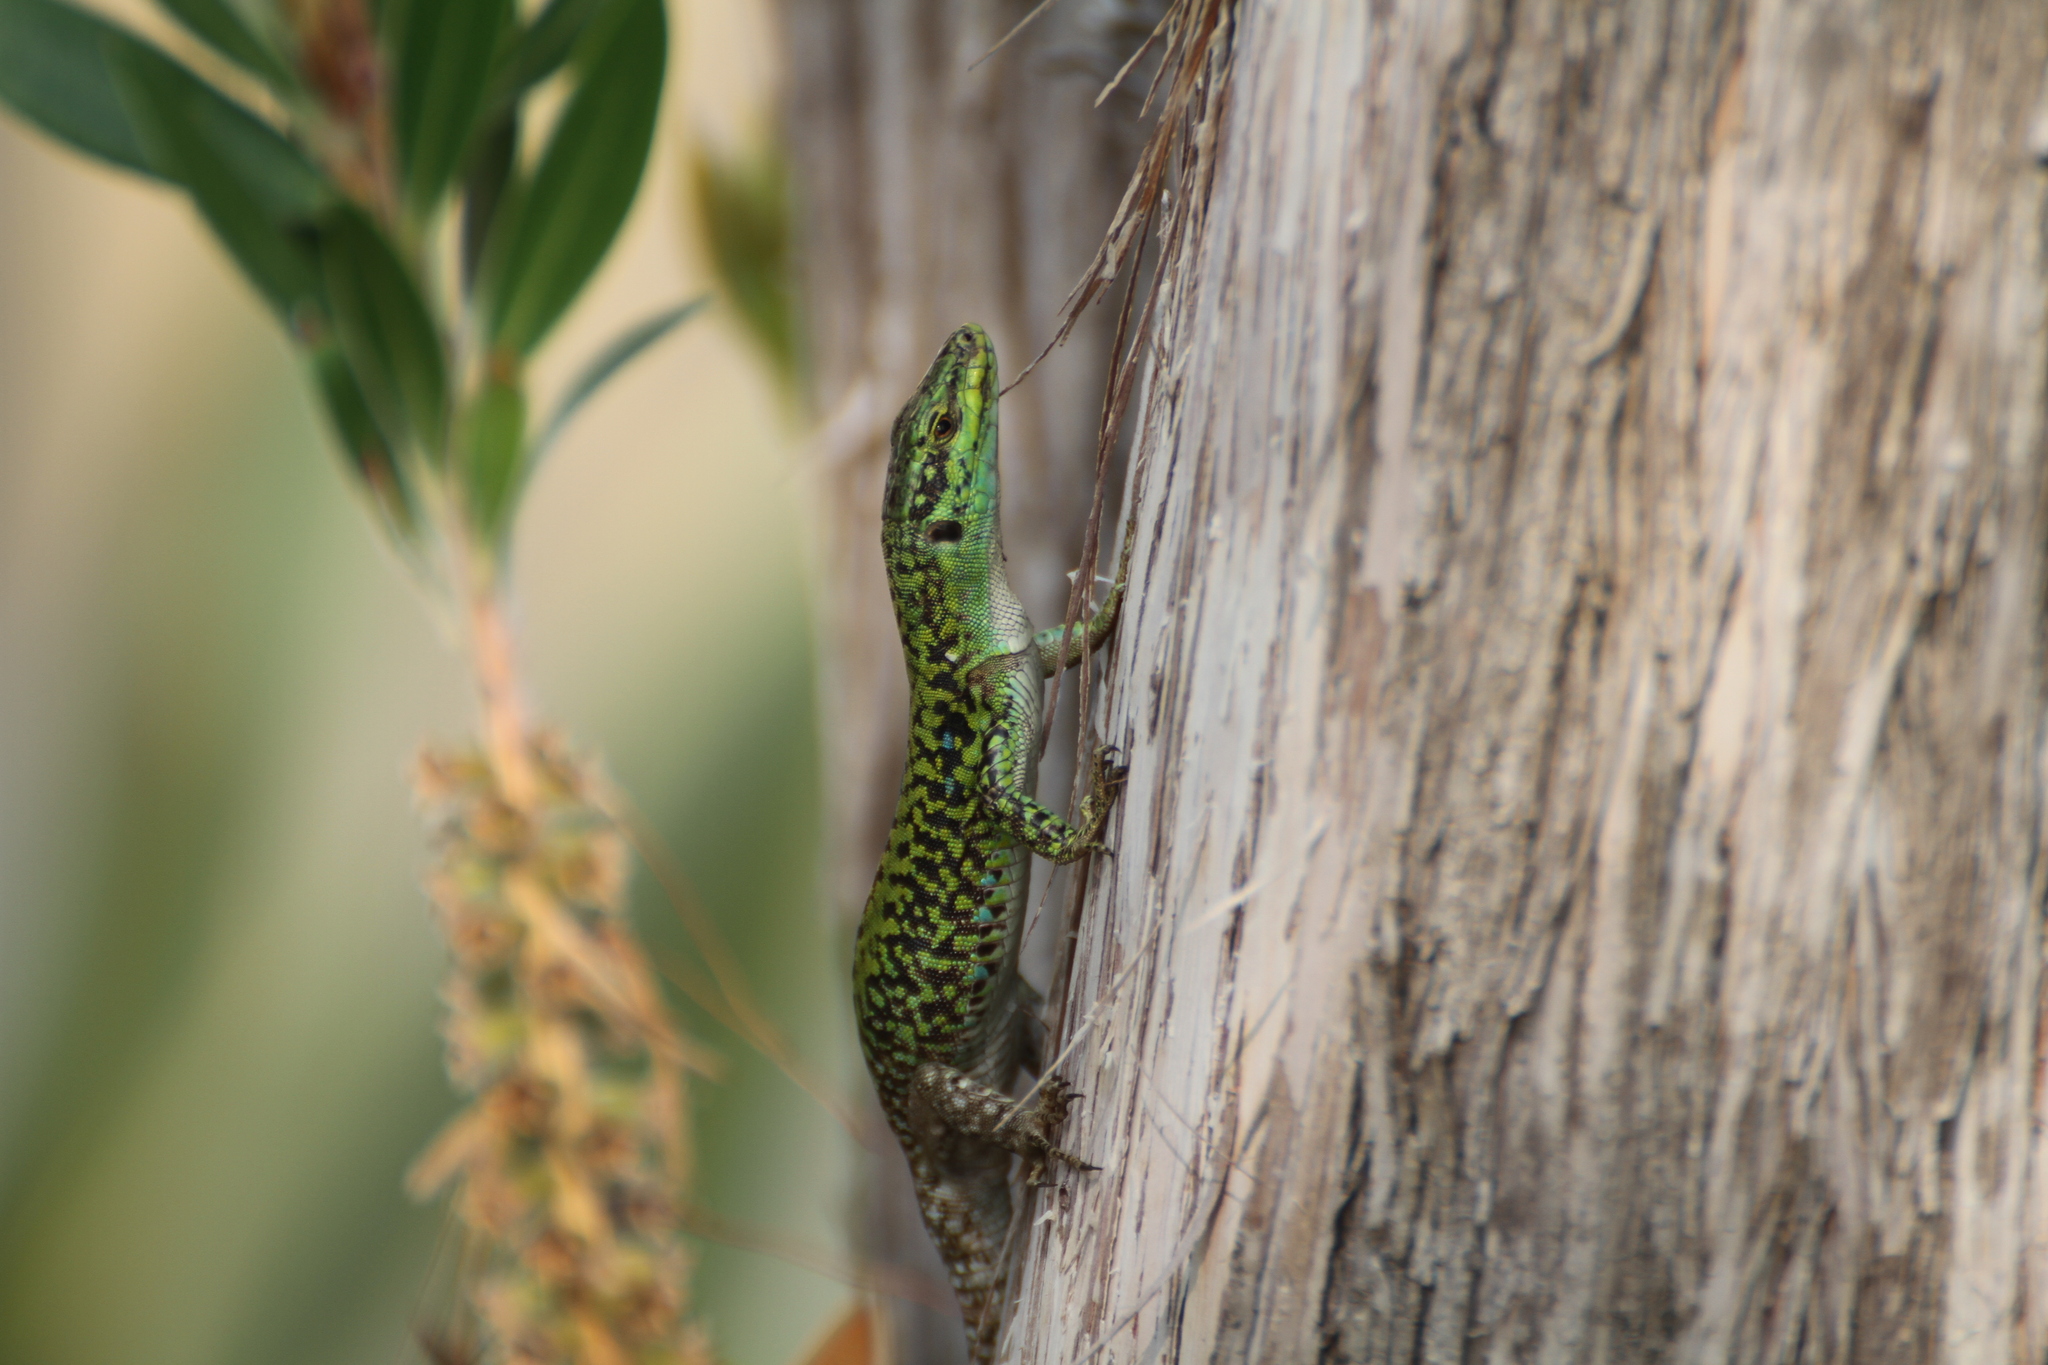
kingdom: Animalia
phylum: Chordata
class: Squamata
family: Lacertidae
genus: Podarcis
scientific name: Podarcis siculus
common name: Italian wall lizard
